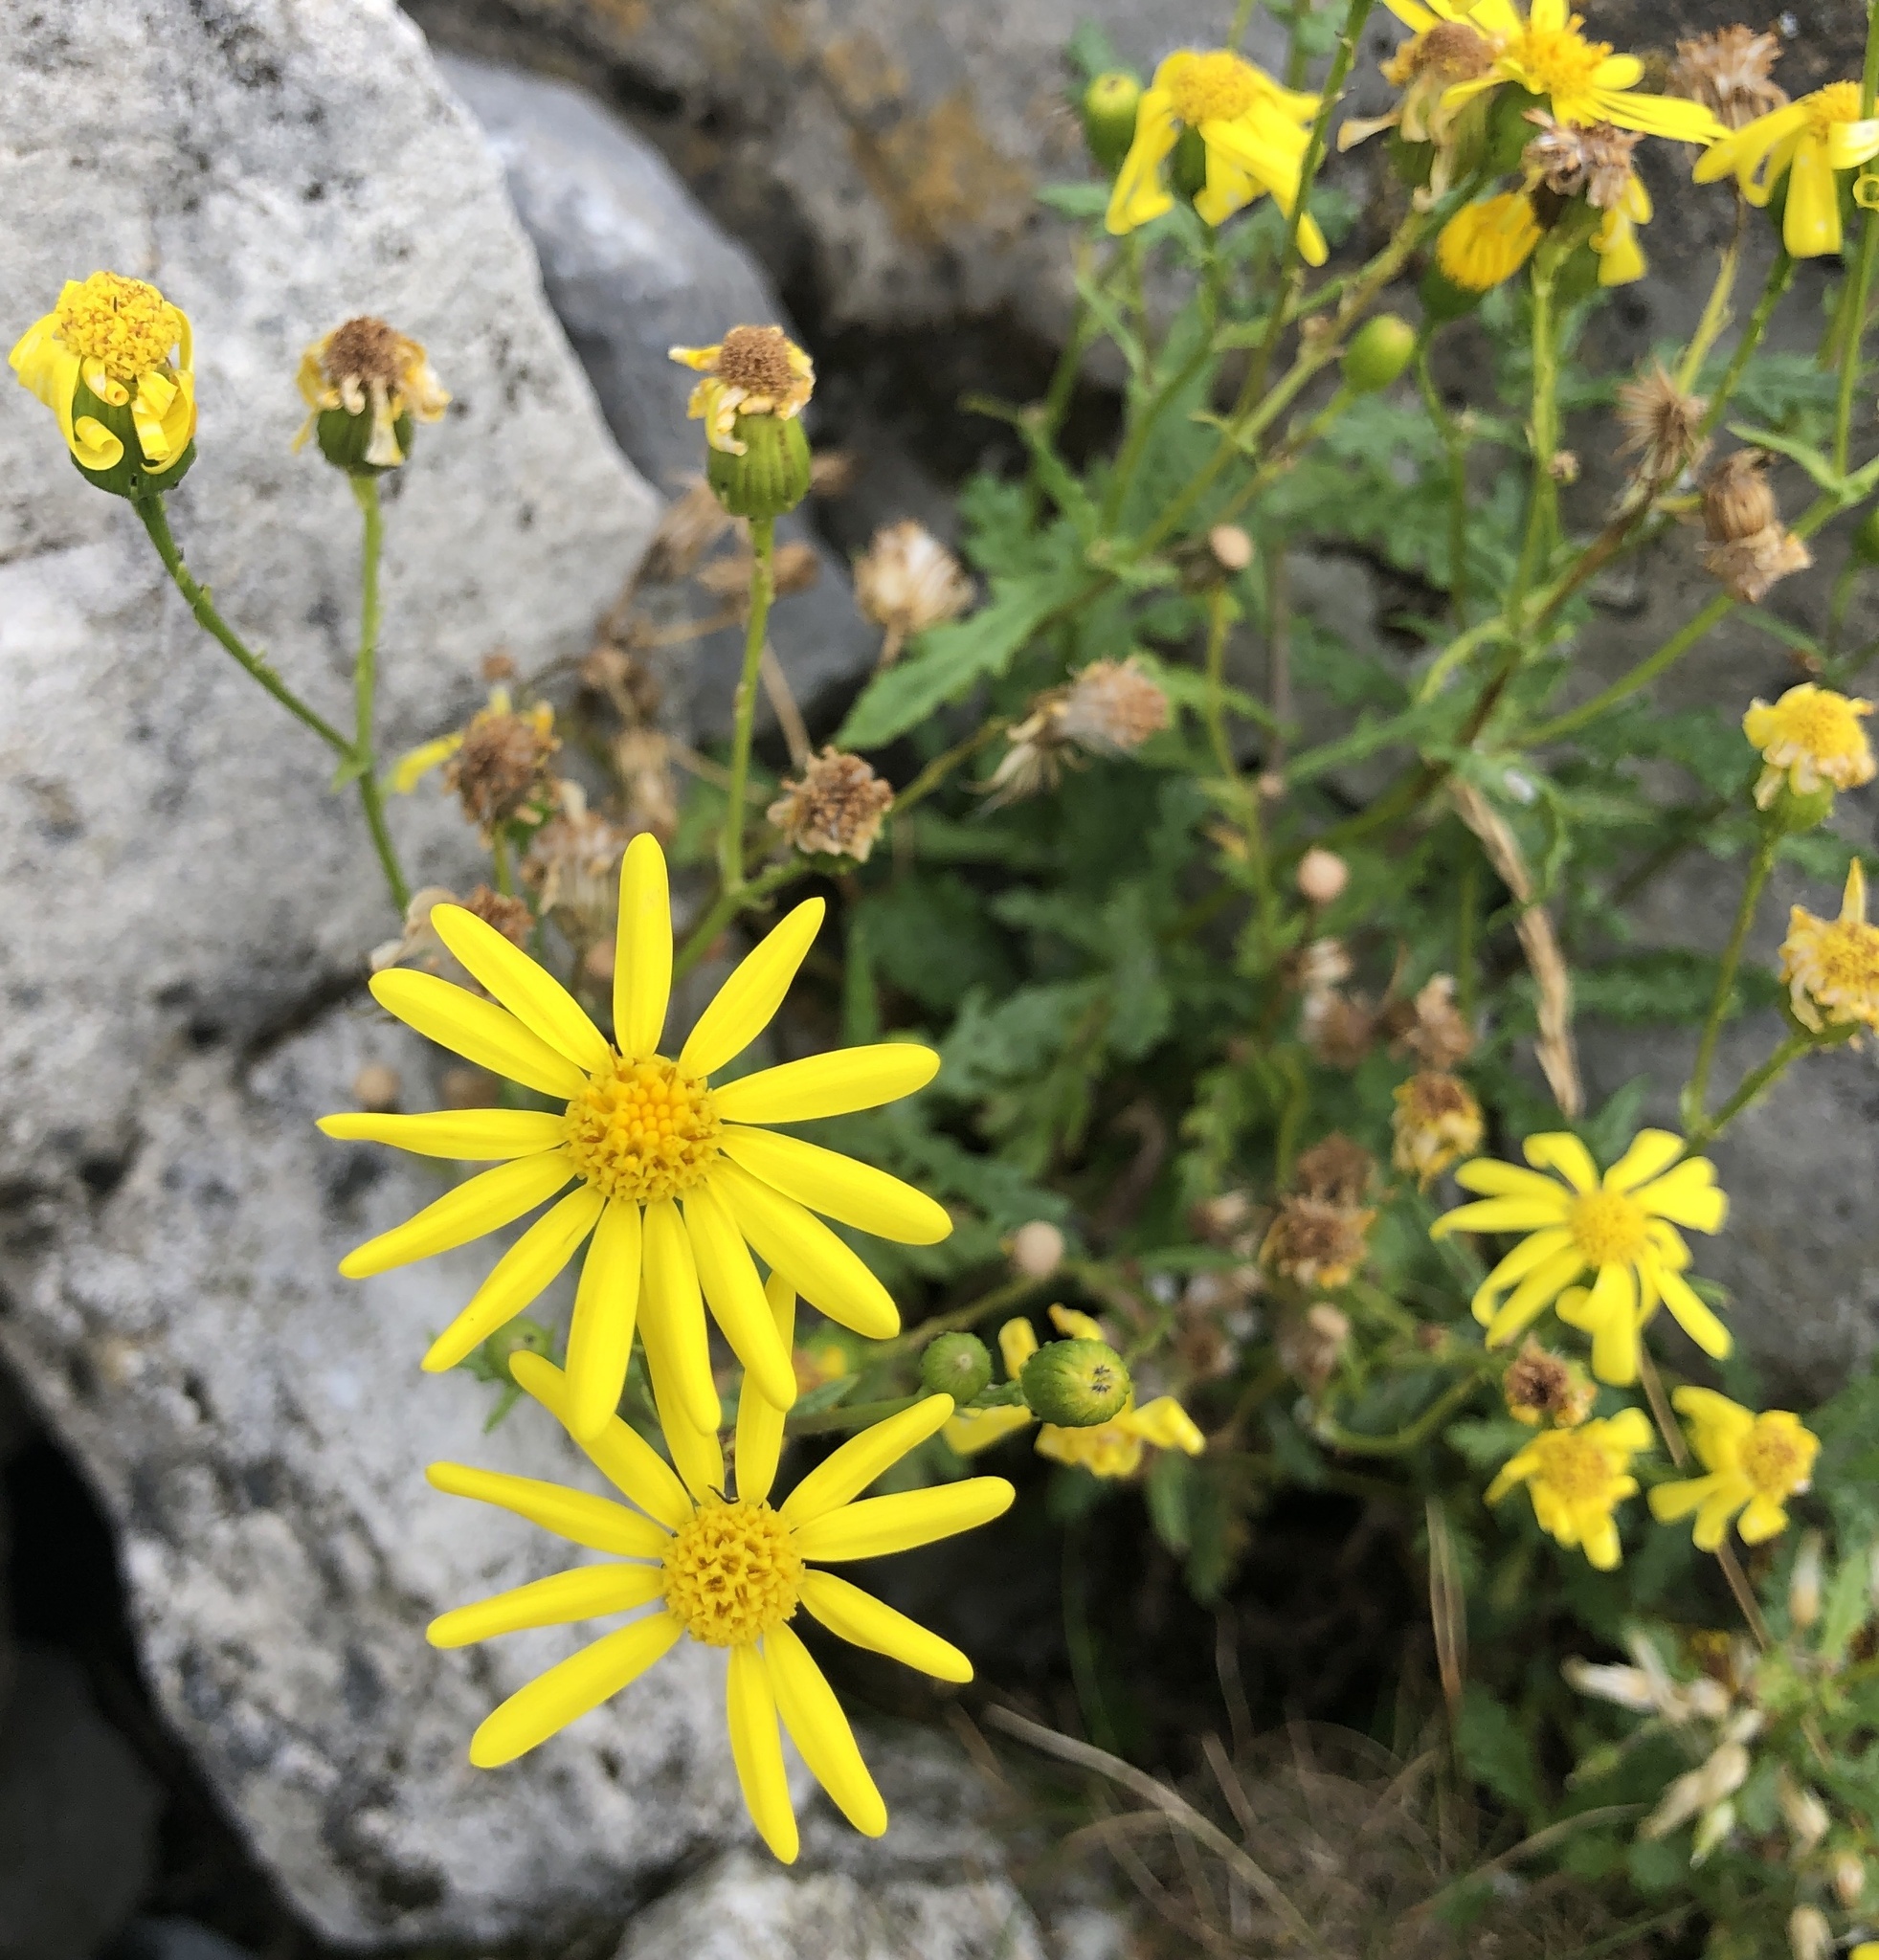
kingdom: Plantae
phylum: Tracheophyta
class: Magnoliopsida
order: Asterales
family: Asteraceae
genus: Senecio
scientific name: Senecio rupestris
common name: Rock ragwort
